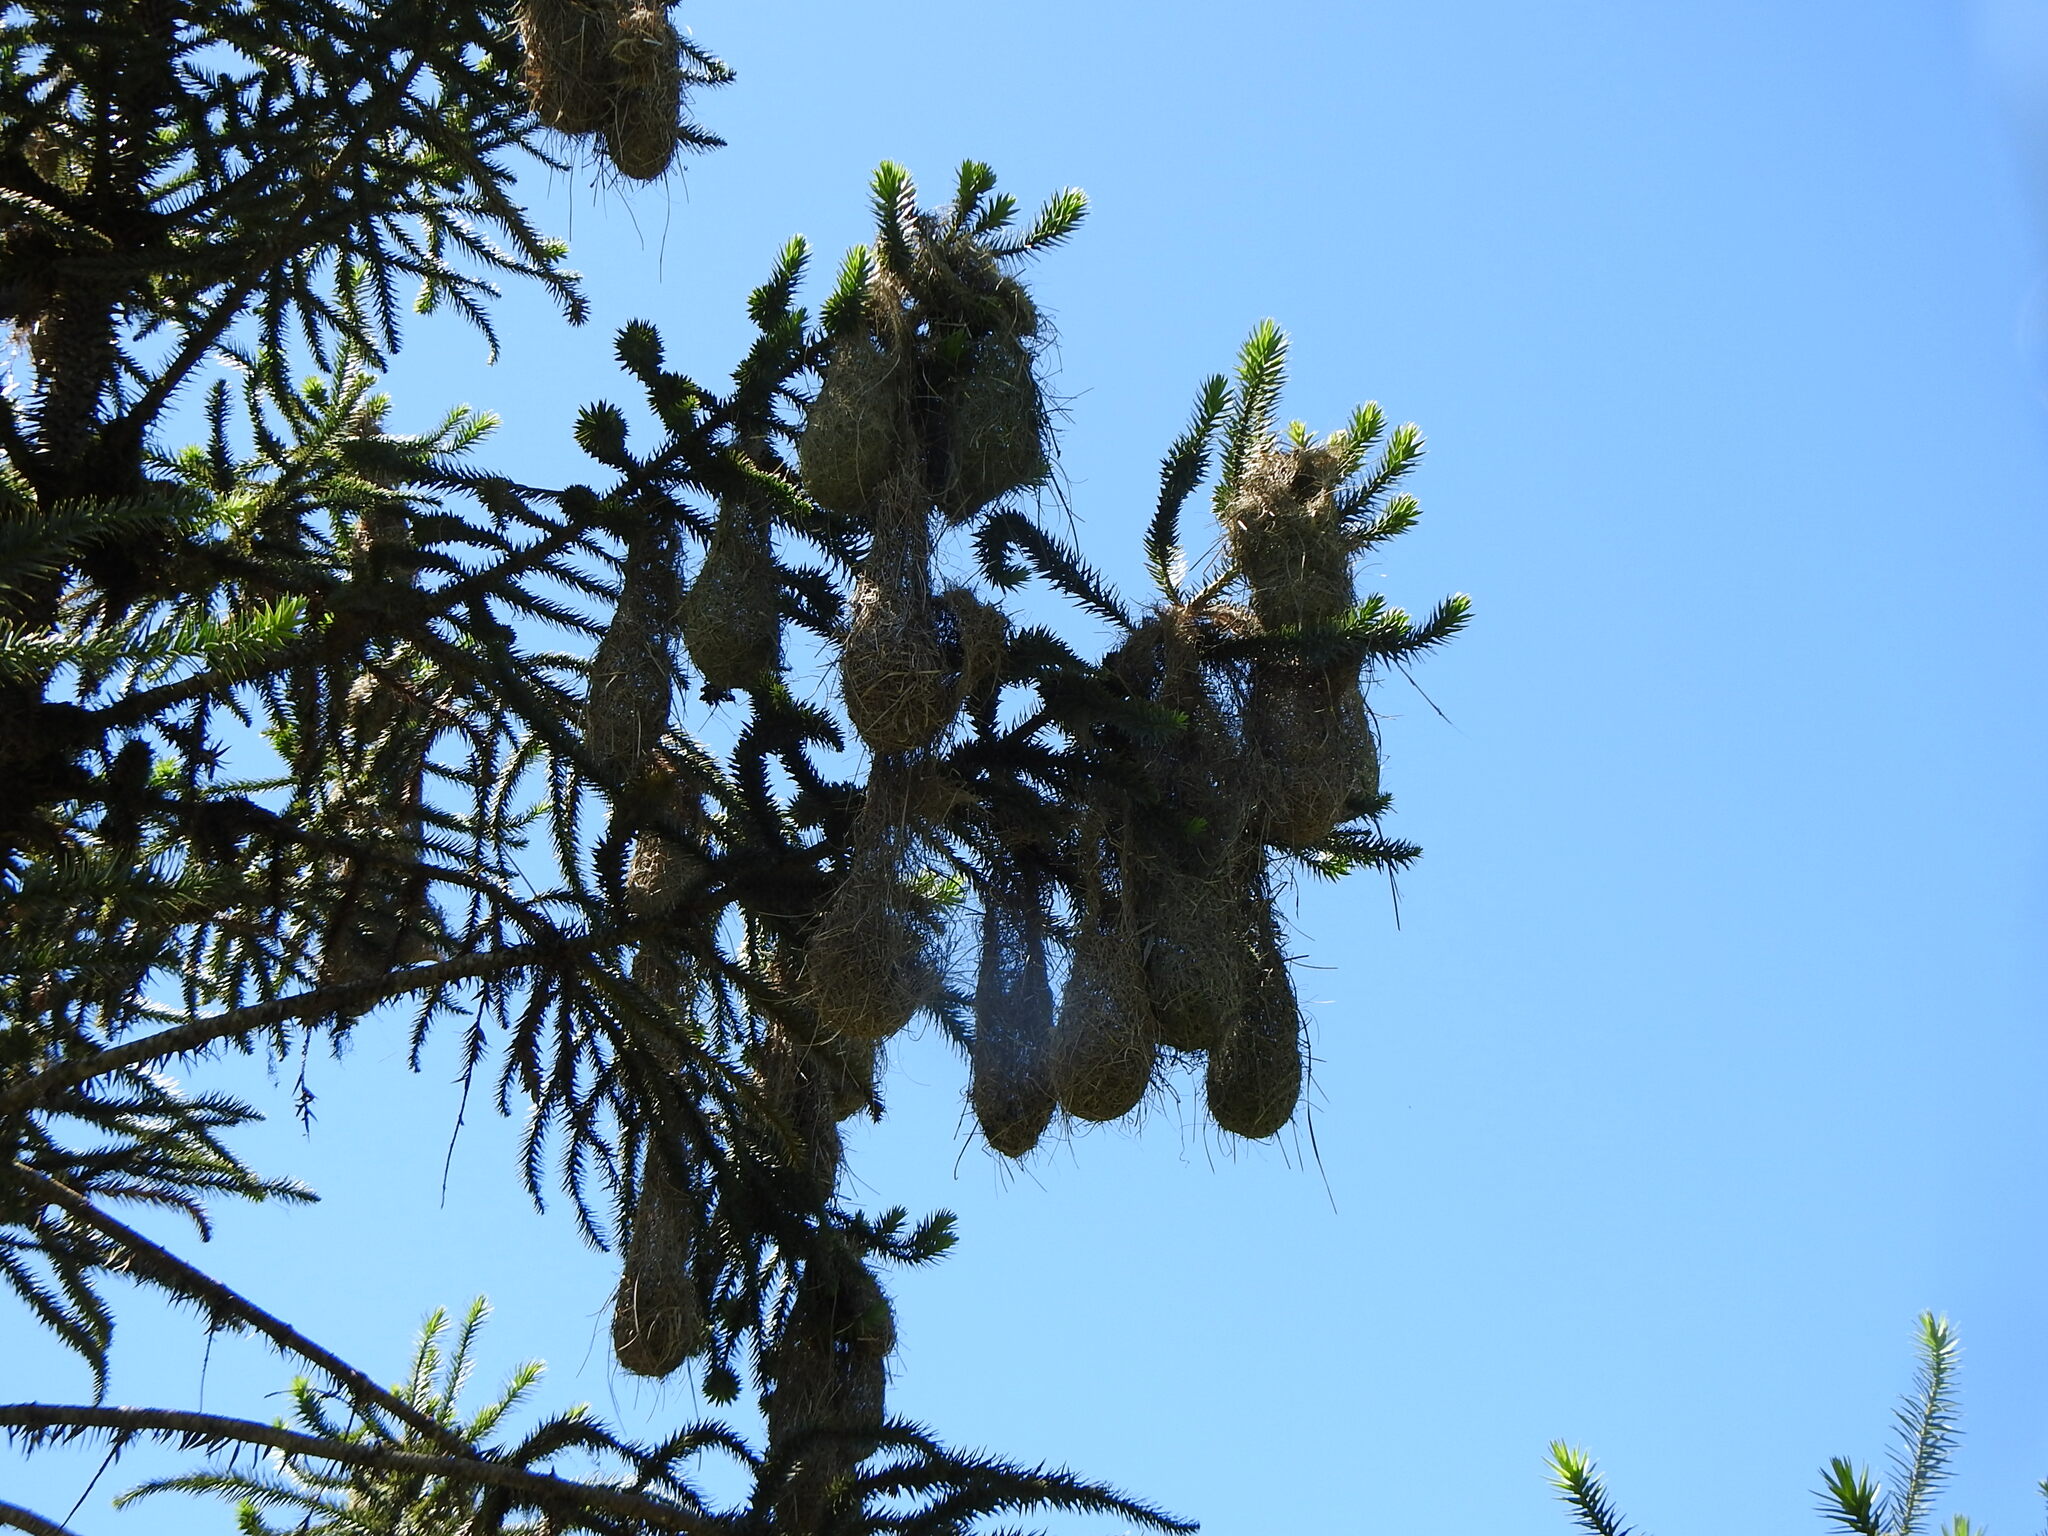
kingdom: Animalia
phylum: Chordata
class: Aves
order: Passeriformes
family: Icteridae
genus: Cacicus
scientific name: Cacicus haemorrhous
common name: Red-rumped cacique
